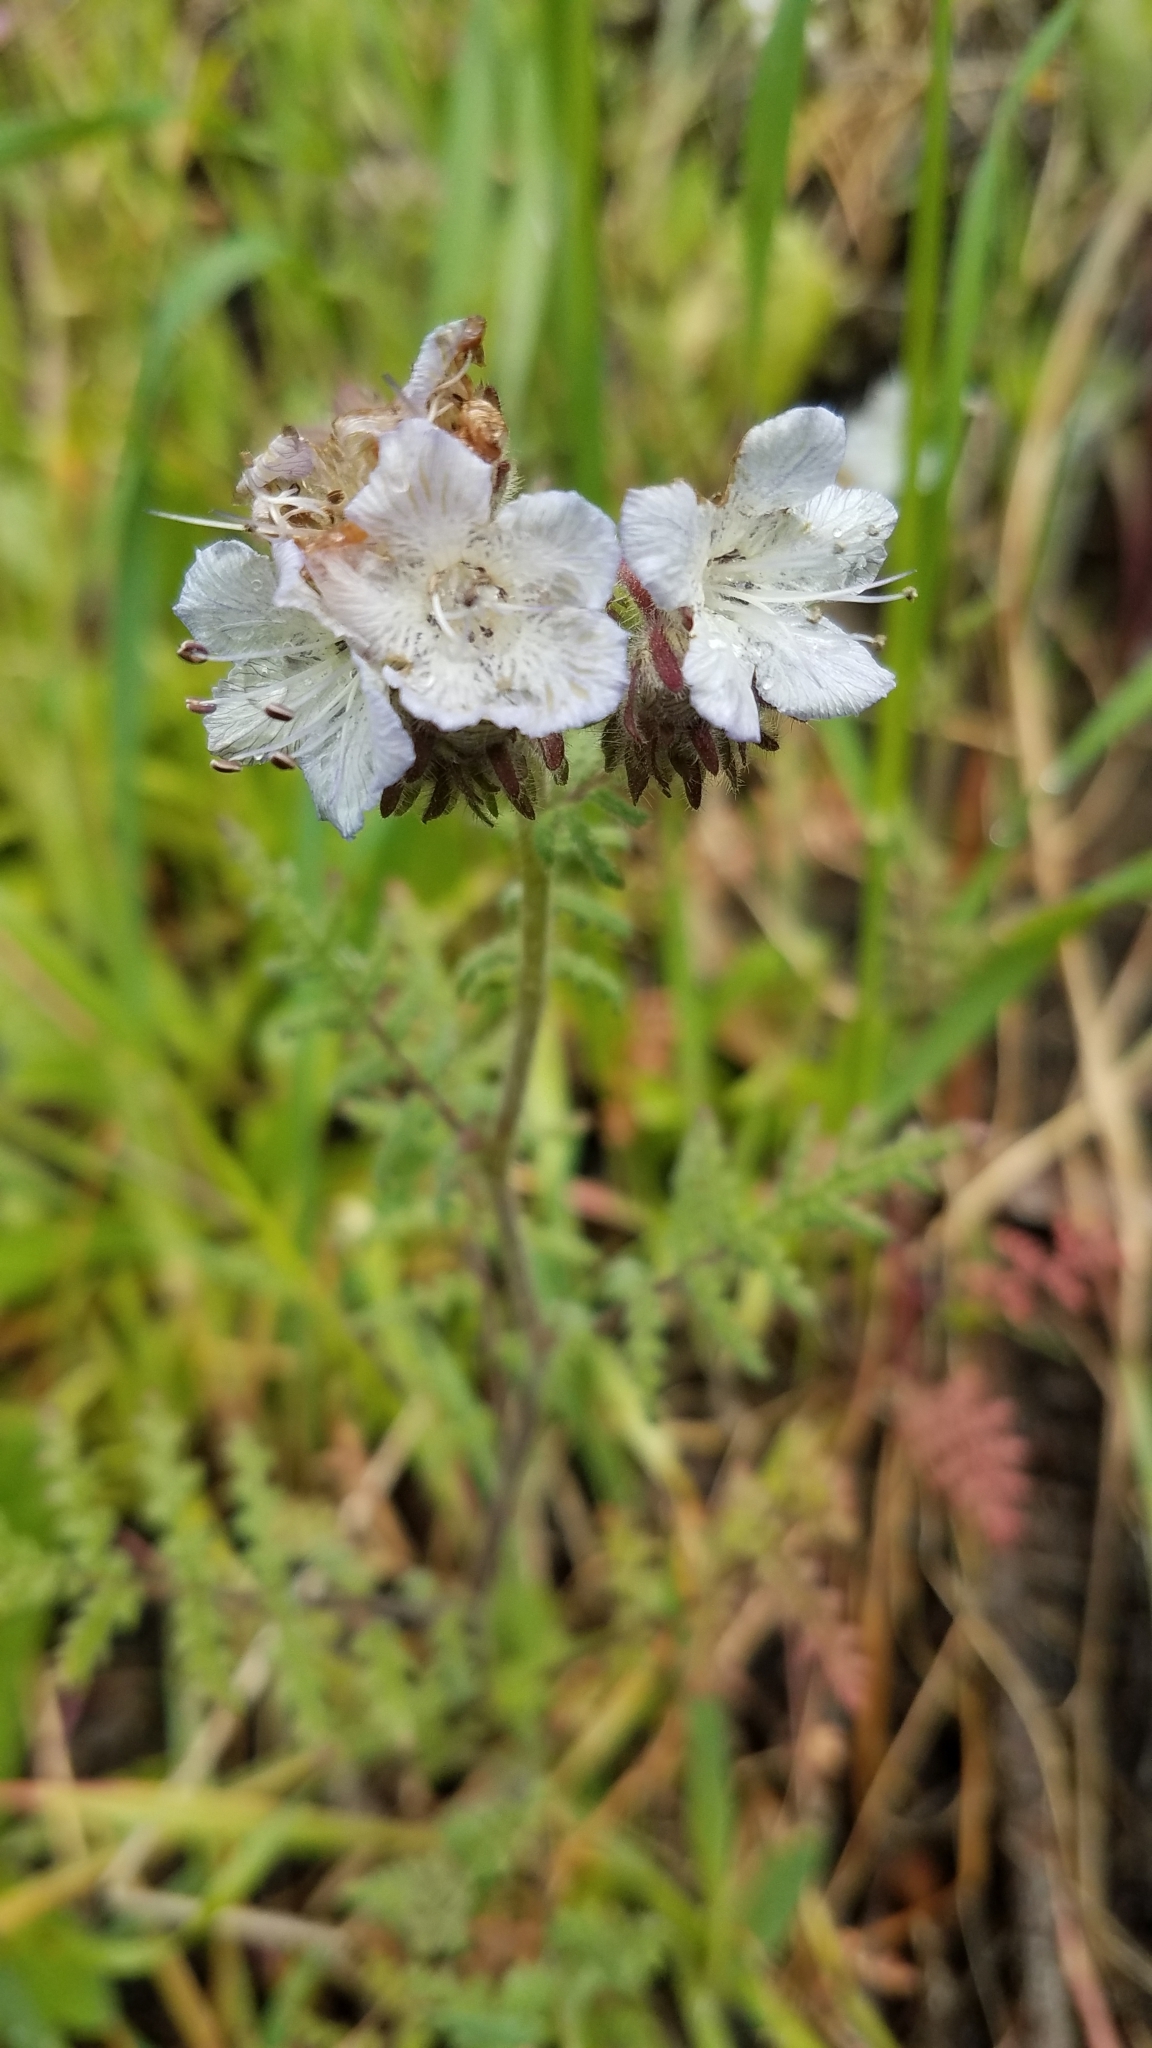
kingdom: Plantae
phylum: Tracheophyta
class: Magnoliopsida
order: Boraginales
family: Hydrophyllaceae
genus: Phacelia
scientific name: Phacelia distans
